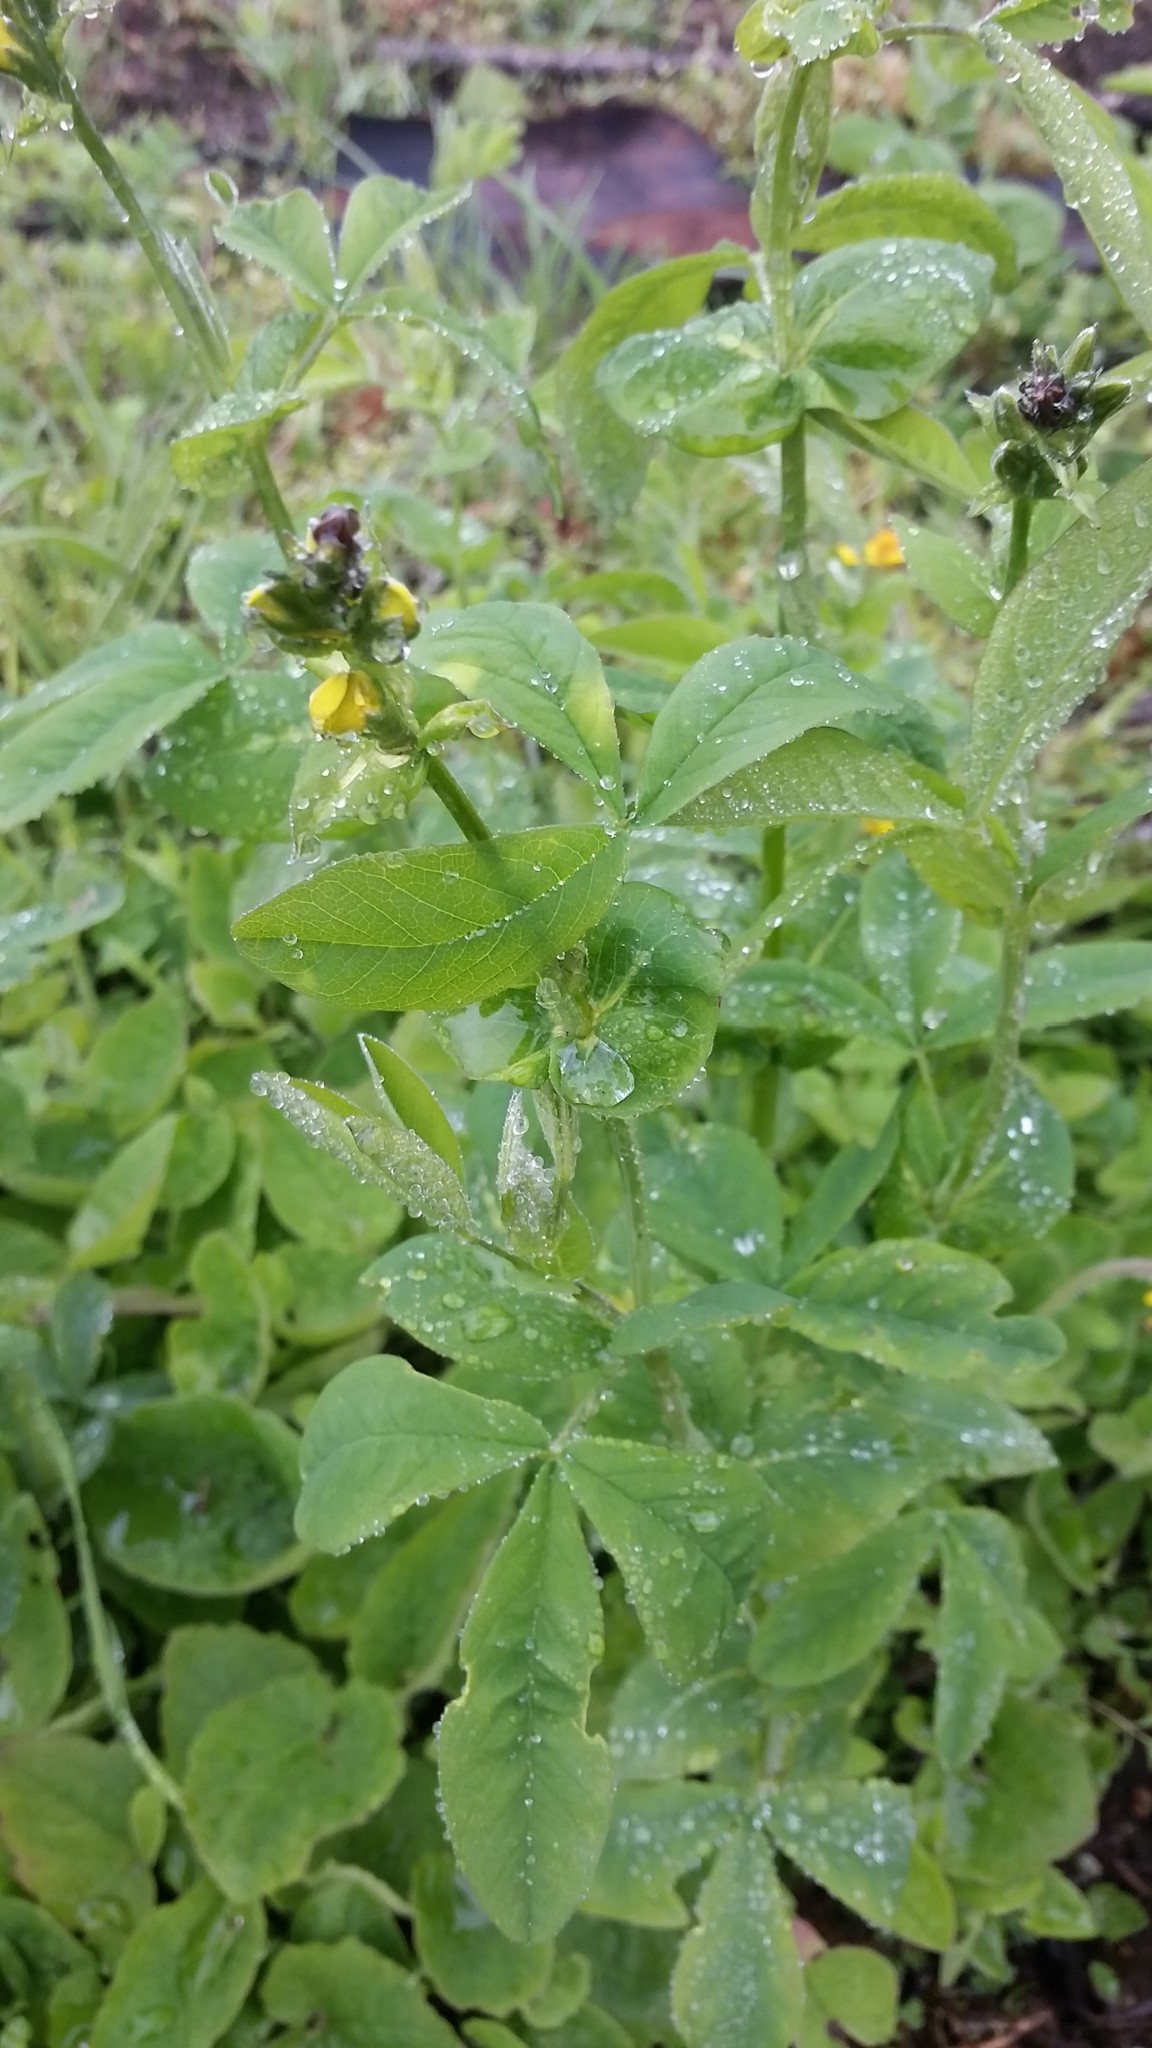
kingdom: Plantae
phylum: Tracheophyta
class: Magnoliopsida
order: Fabales
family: Fabaceae
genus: Thermopsis
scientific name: Thermopsis montana
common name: False lupin
